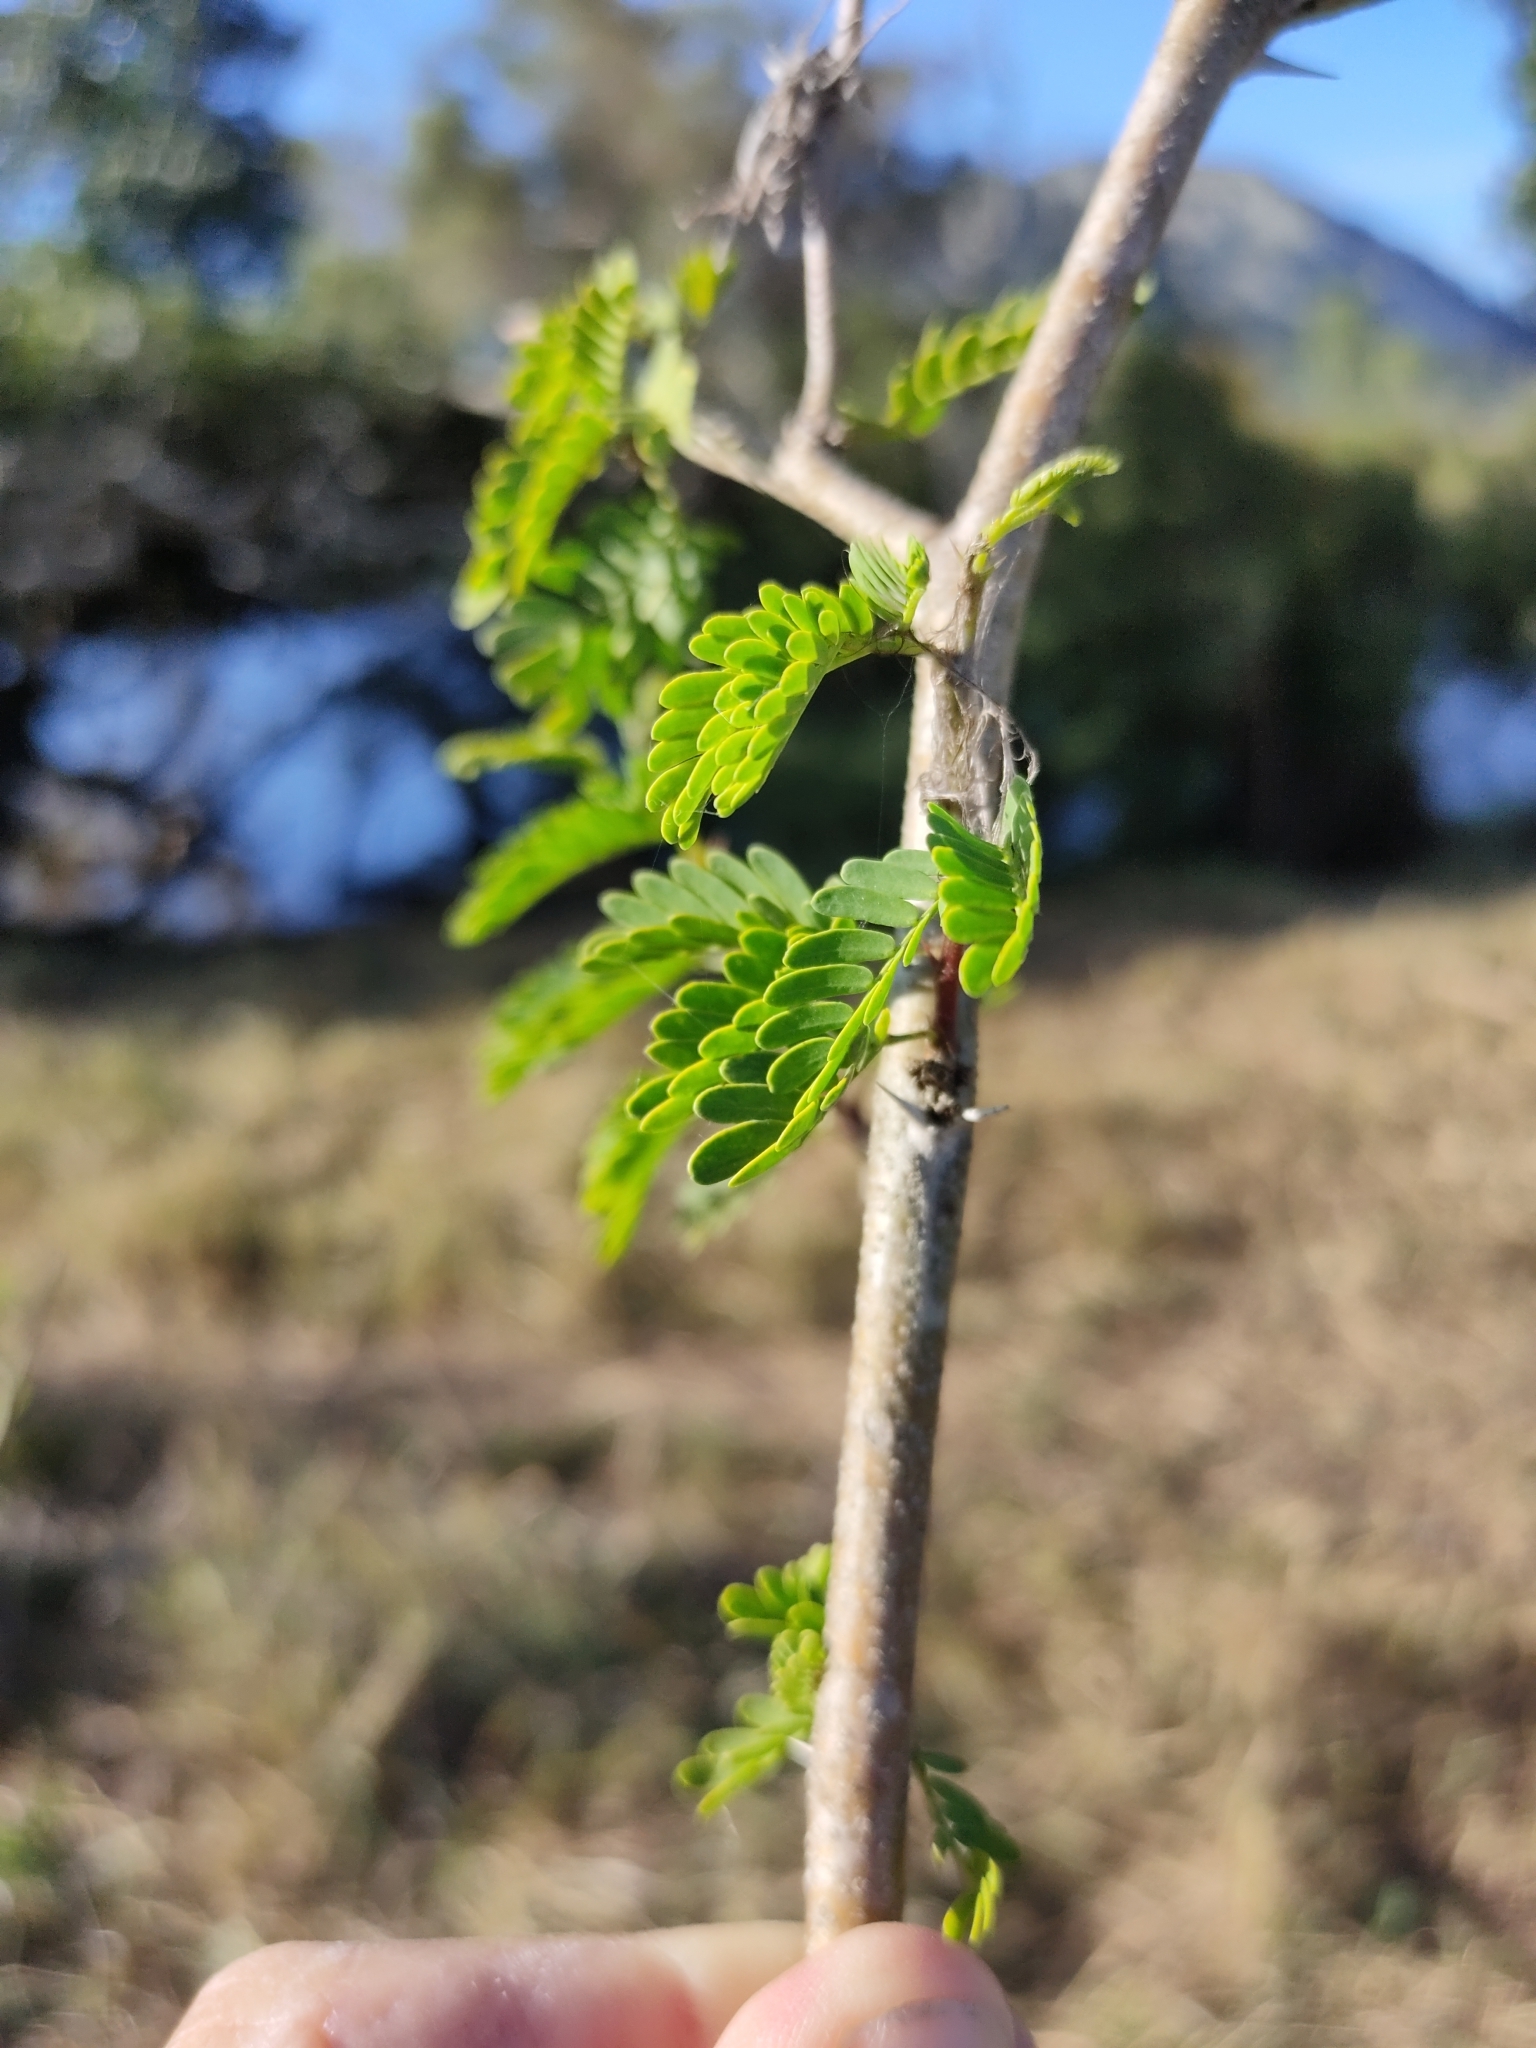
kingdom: Plantae
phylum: Tracheophyta
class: Magnoliopsida
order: Fabales
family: Fabaceae
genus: Vachellia
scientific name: Vachellia farnesiana
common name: Sweet acacia
